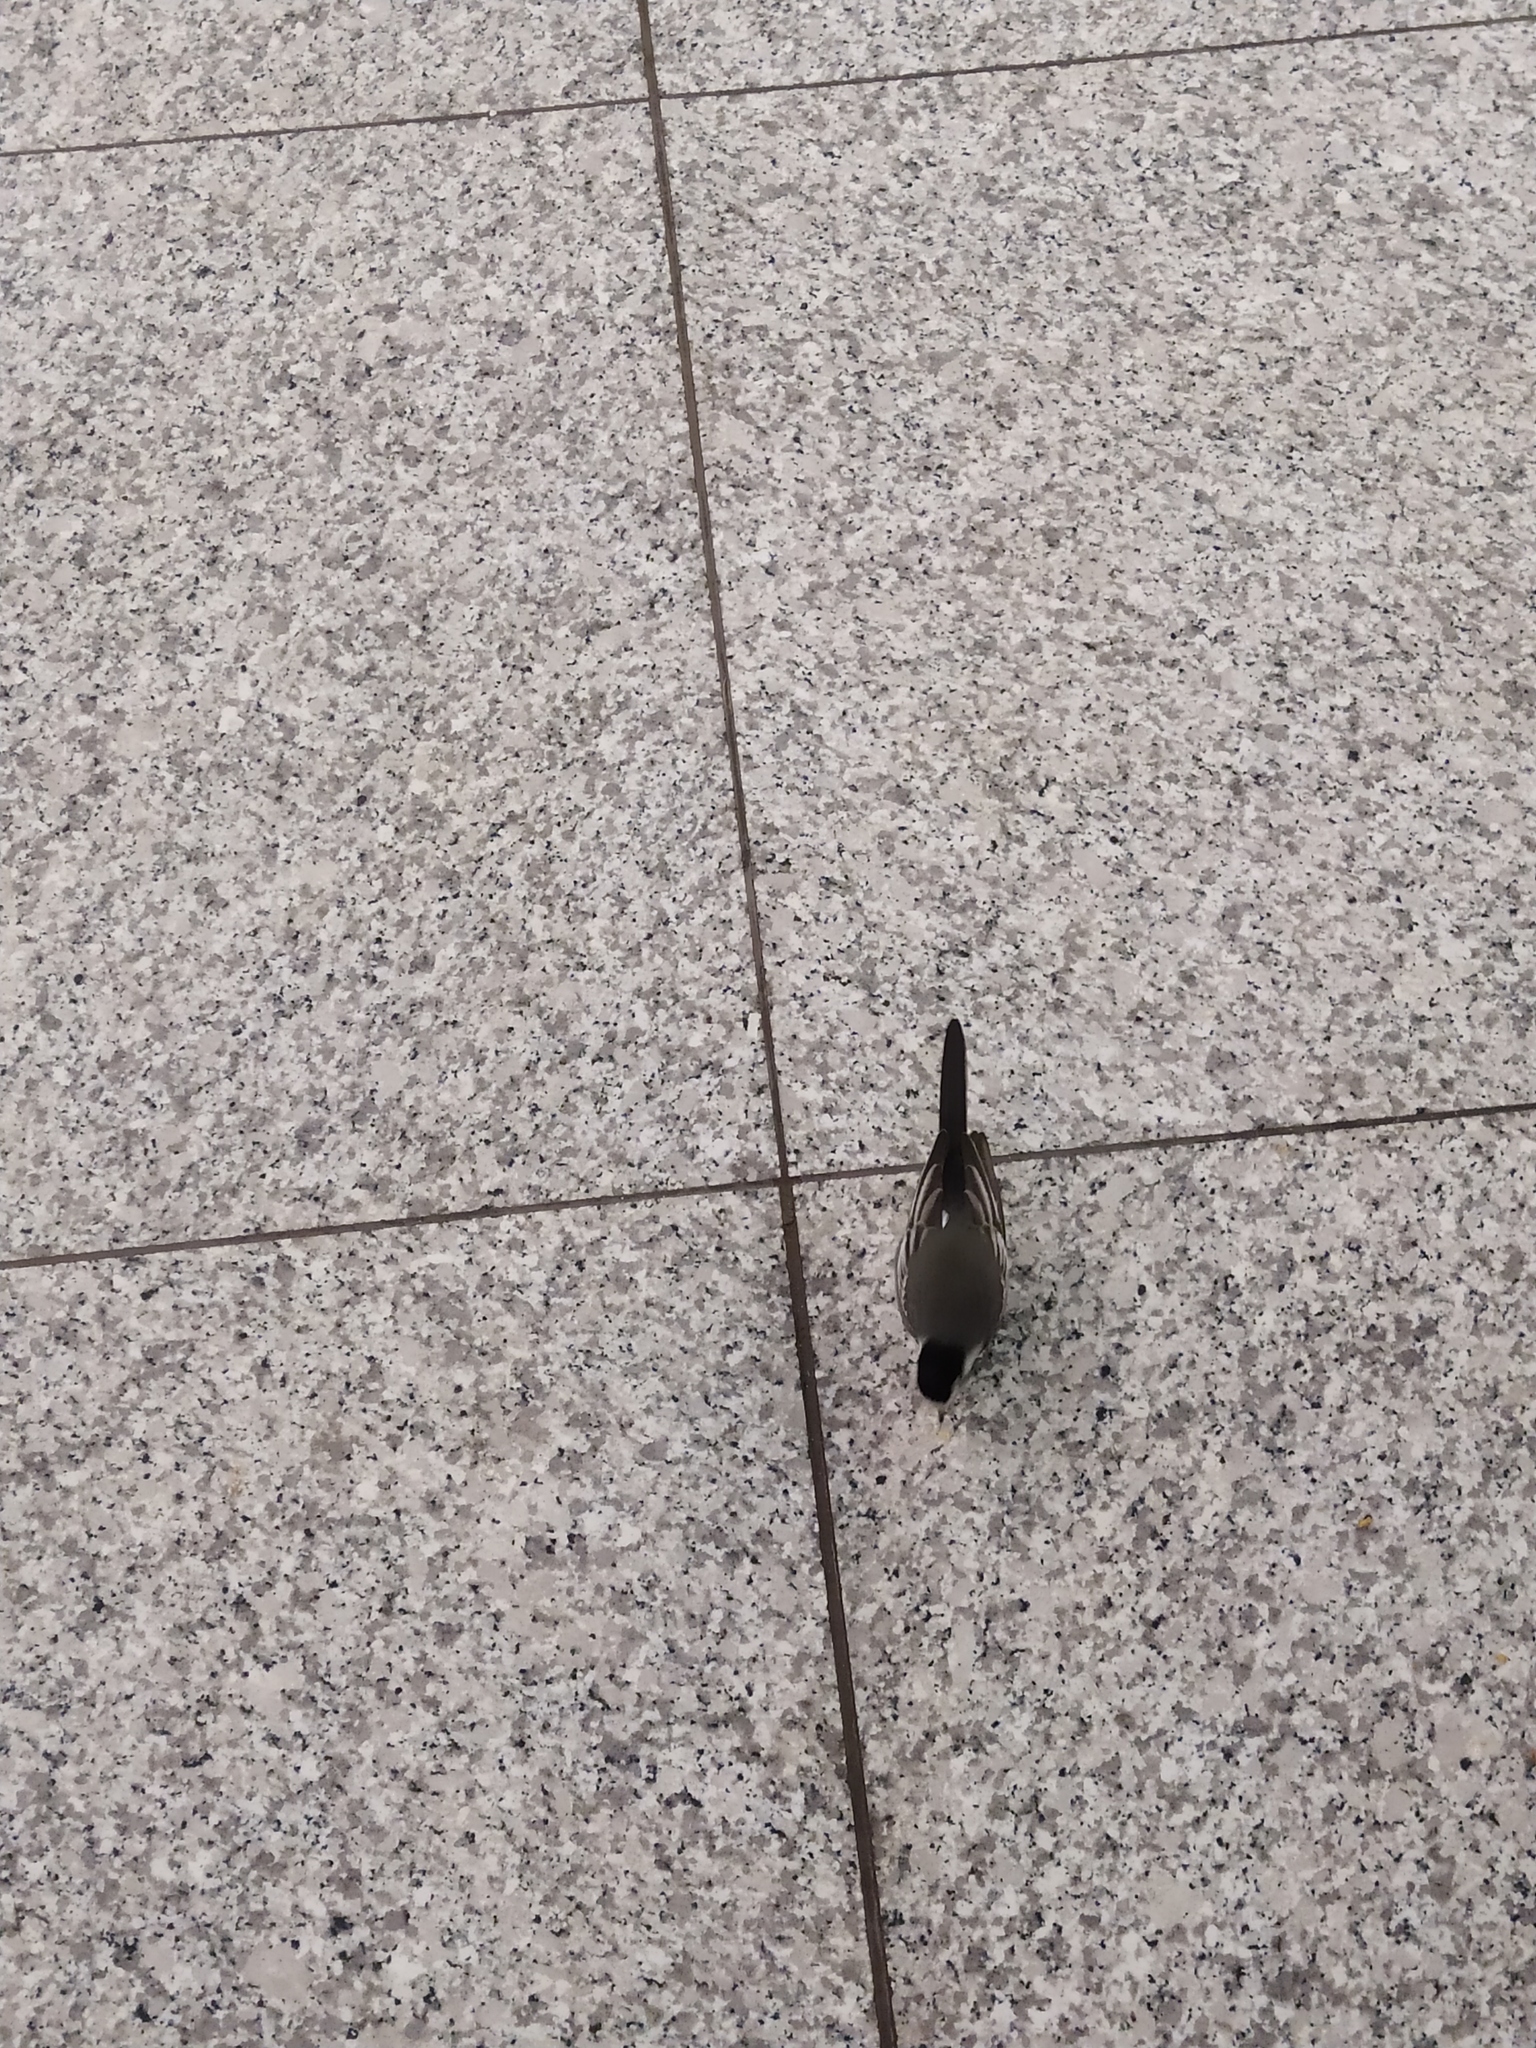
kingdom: Animalia
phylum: Chordata
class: Aves
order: Passeriformes
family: Motacillidae
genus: Motacilla
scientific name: Motacilla alba
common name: White wagtail
